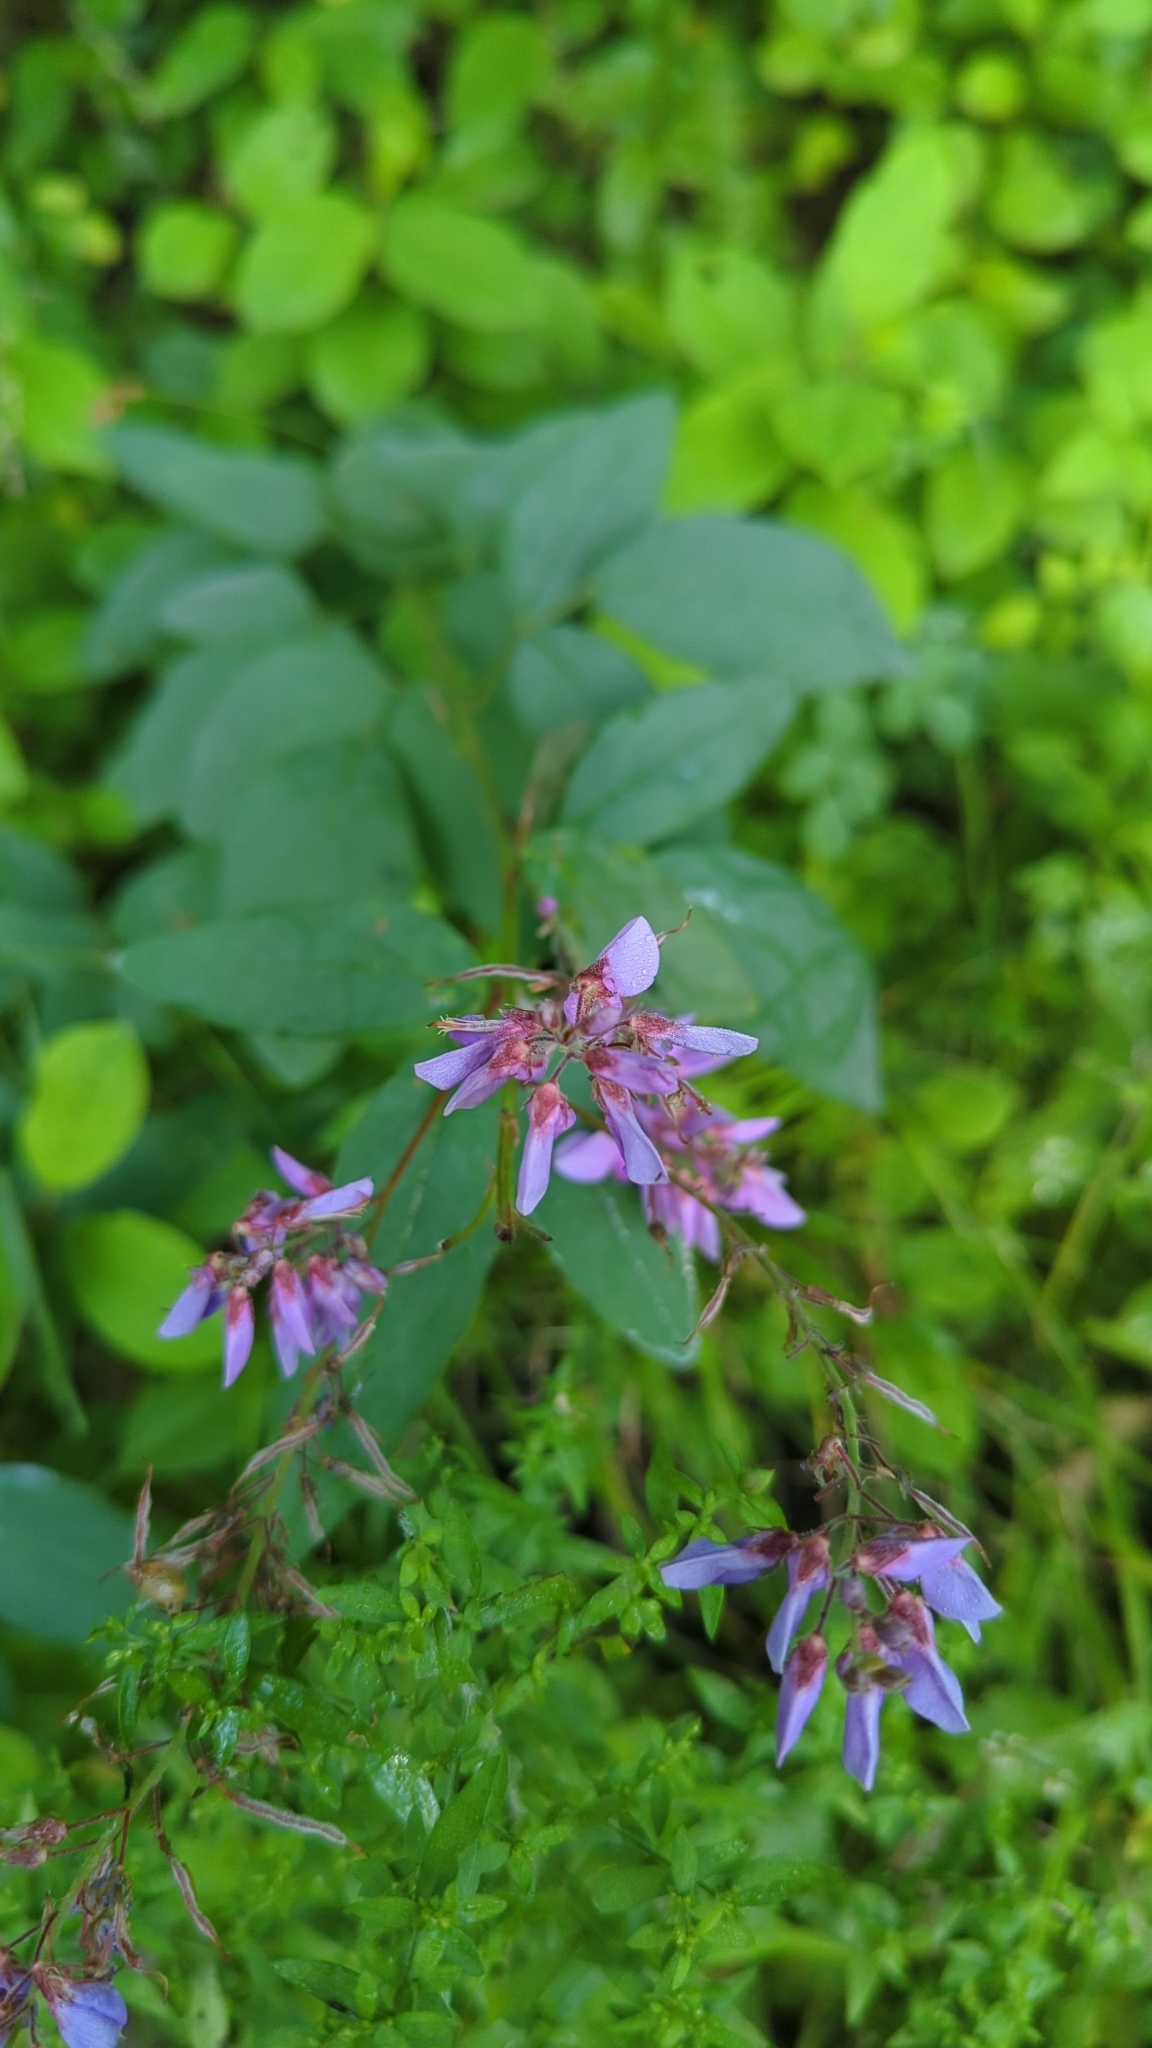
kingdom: Plantae
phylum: Tracheophyta
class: Magnoliopsida
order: Fabales
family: Fabaceae
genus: Desmodium
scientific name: Desmodium canadense
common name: Canada tick-trefoil
